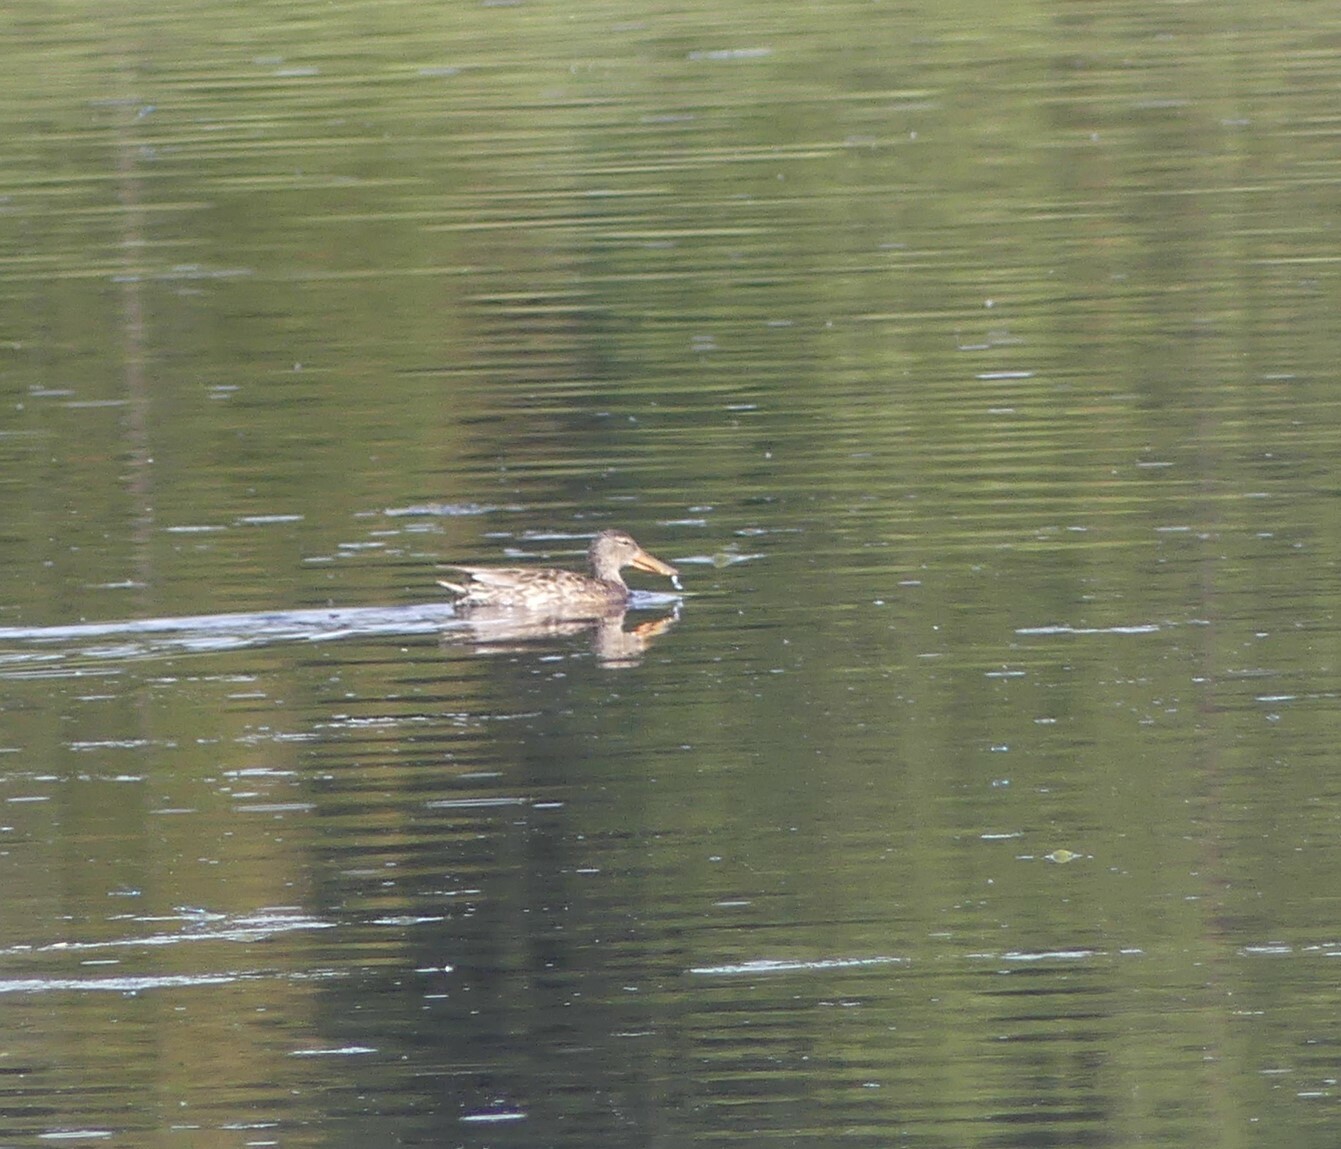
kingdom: Animalia
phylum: Chordata
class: Aves
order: Anseriformes
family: Anatidae
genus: Spatula
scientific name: Spatula clypeata
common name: Northern shoveler
